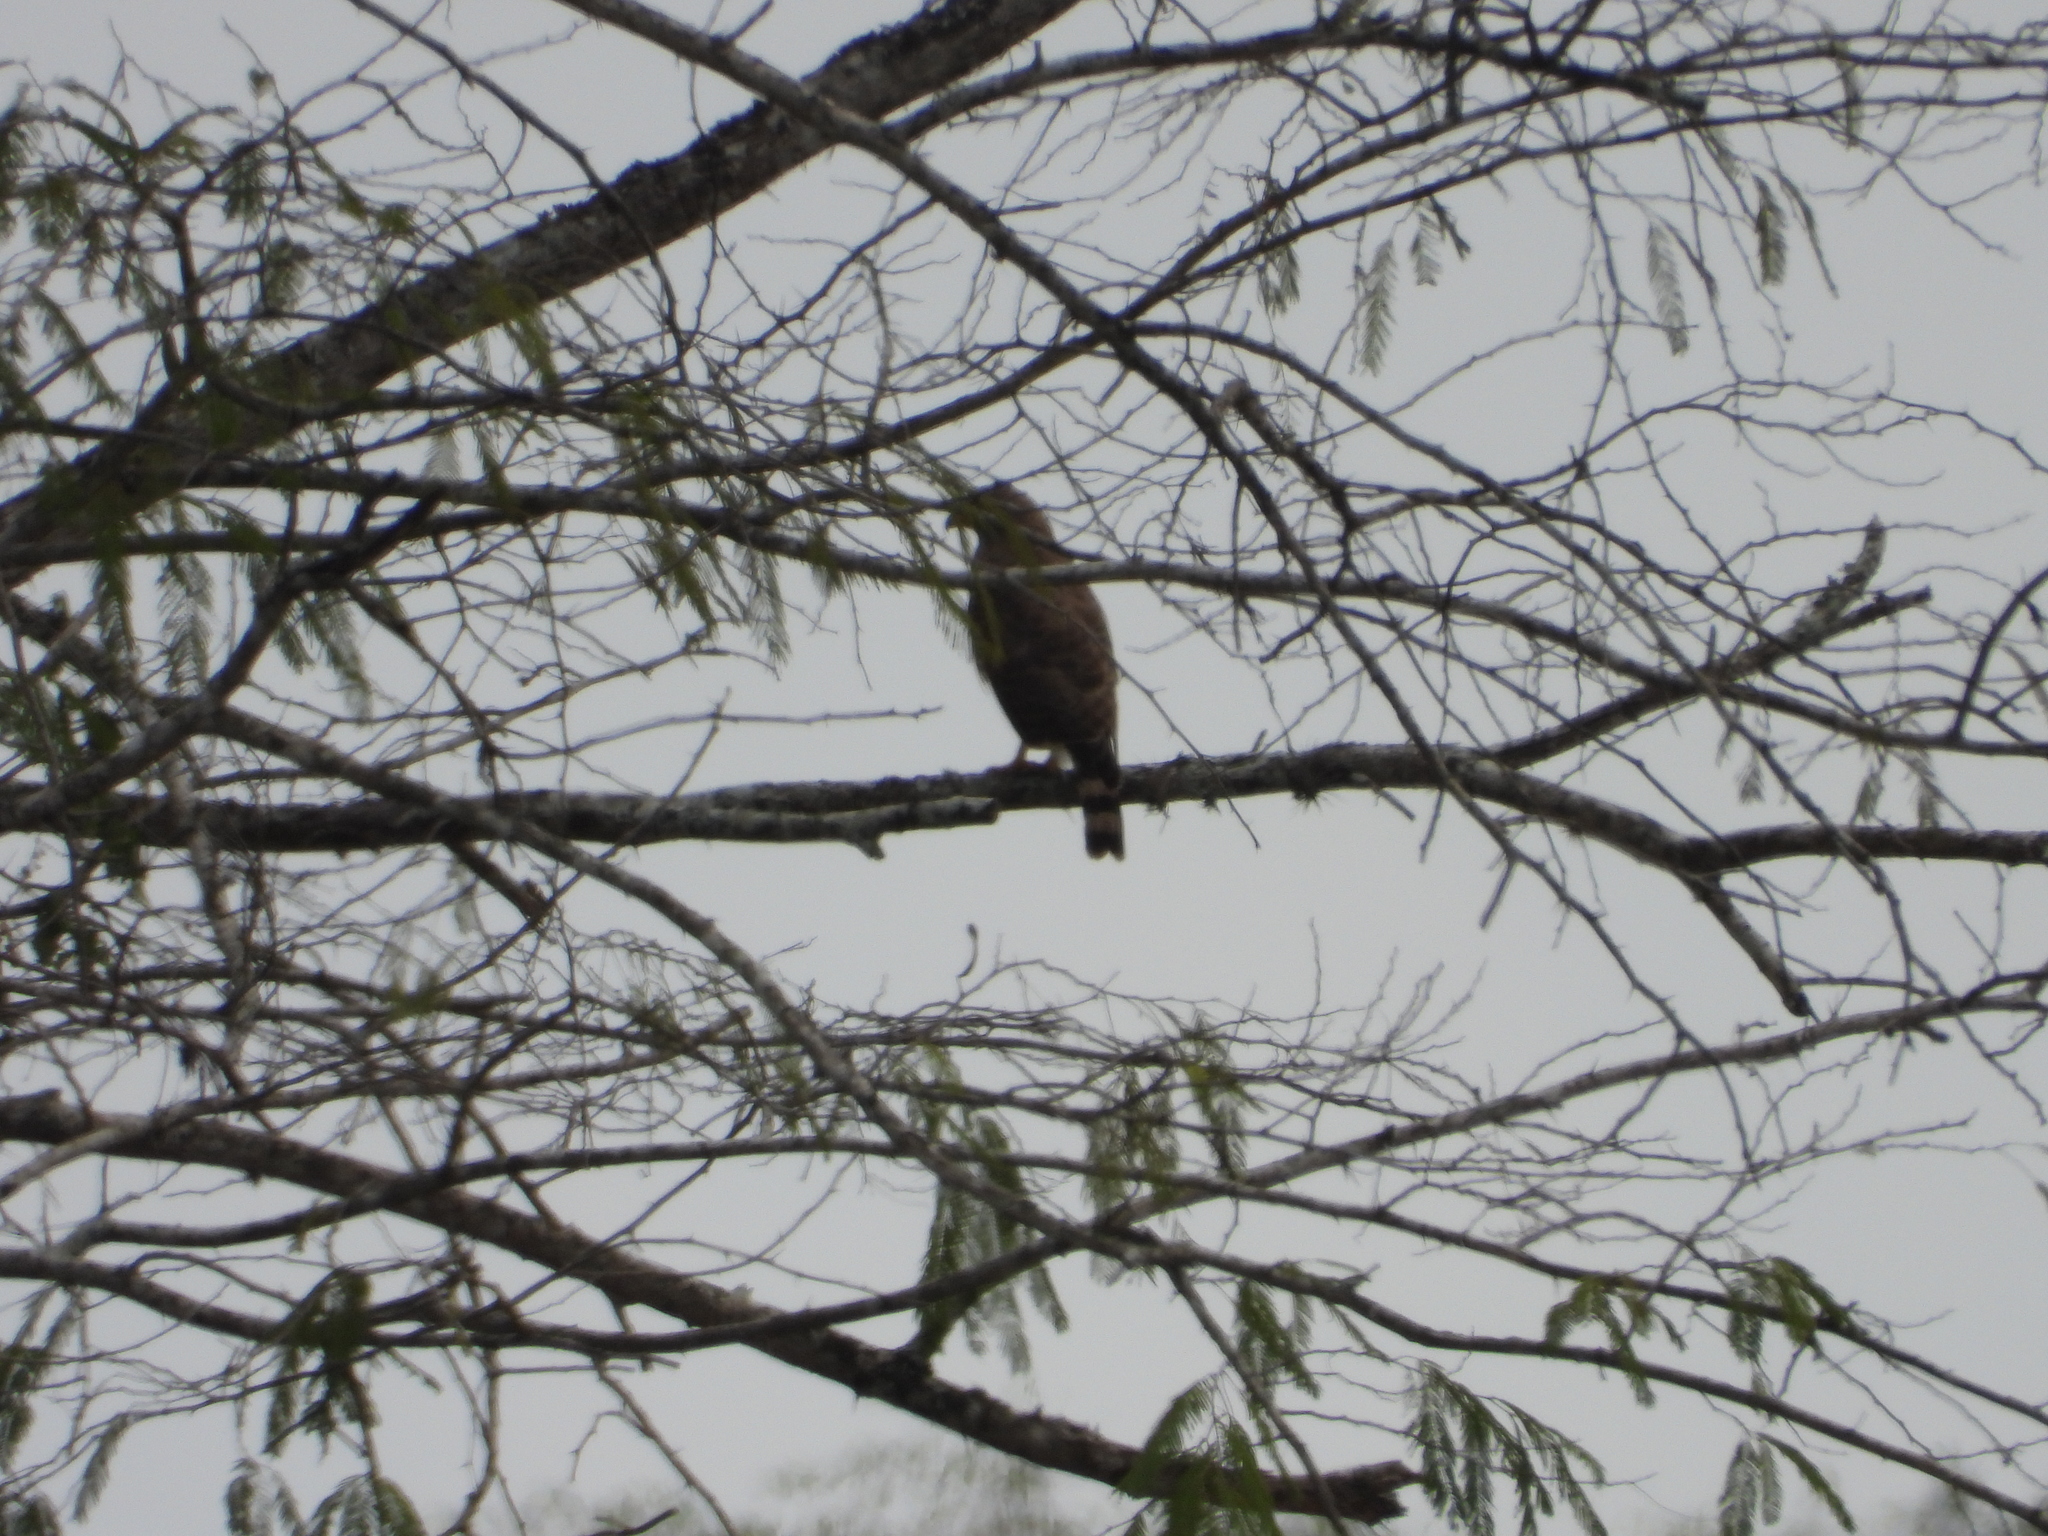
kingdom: Animalia
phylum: Chordata
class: Aves
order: Accipitriformes
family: Accipitridae
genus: Rupornis
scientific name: Rupornis magnirostris
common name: Roadside hawk
